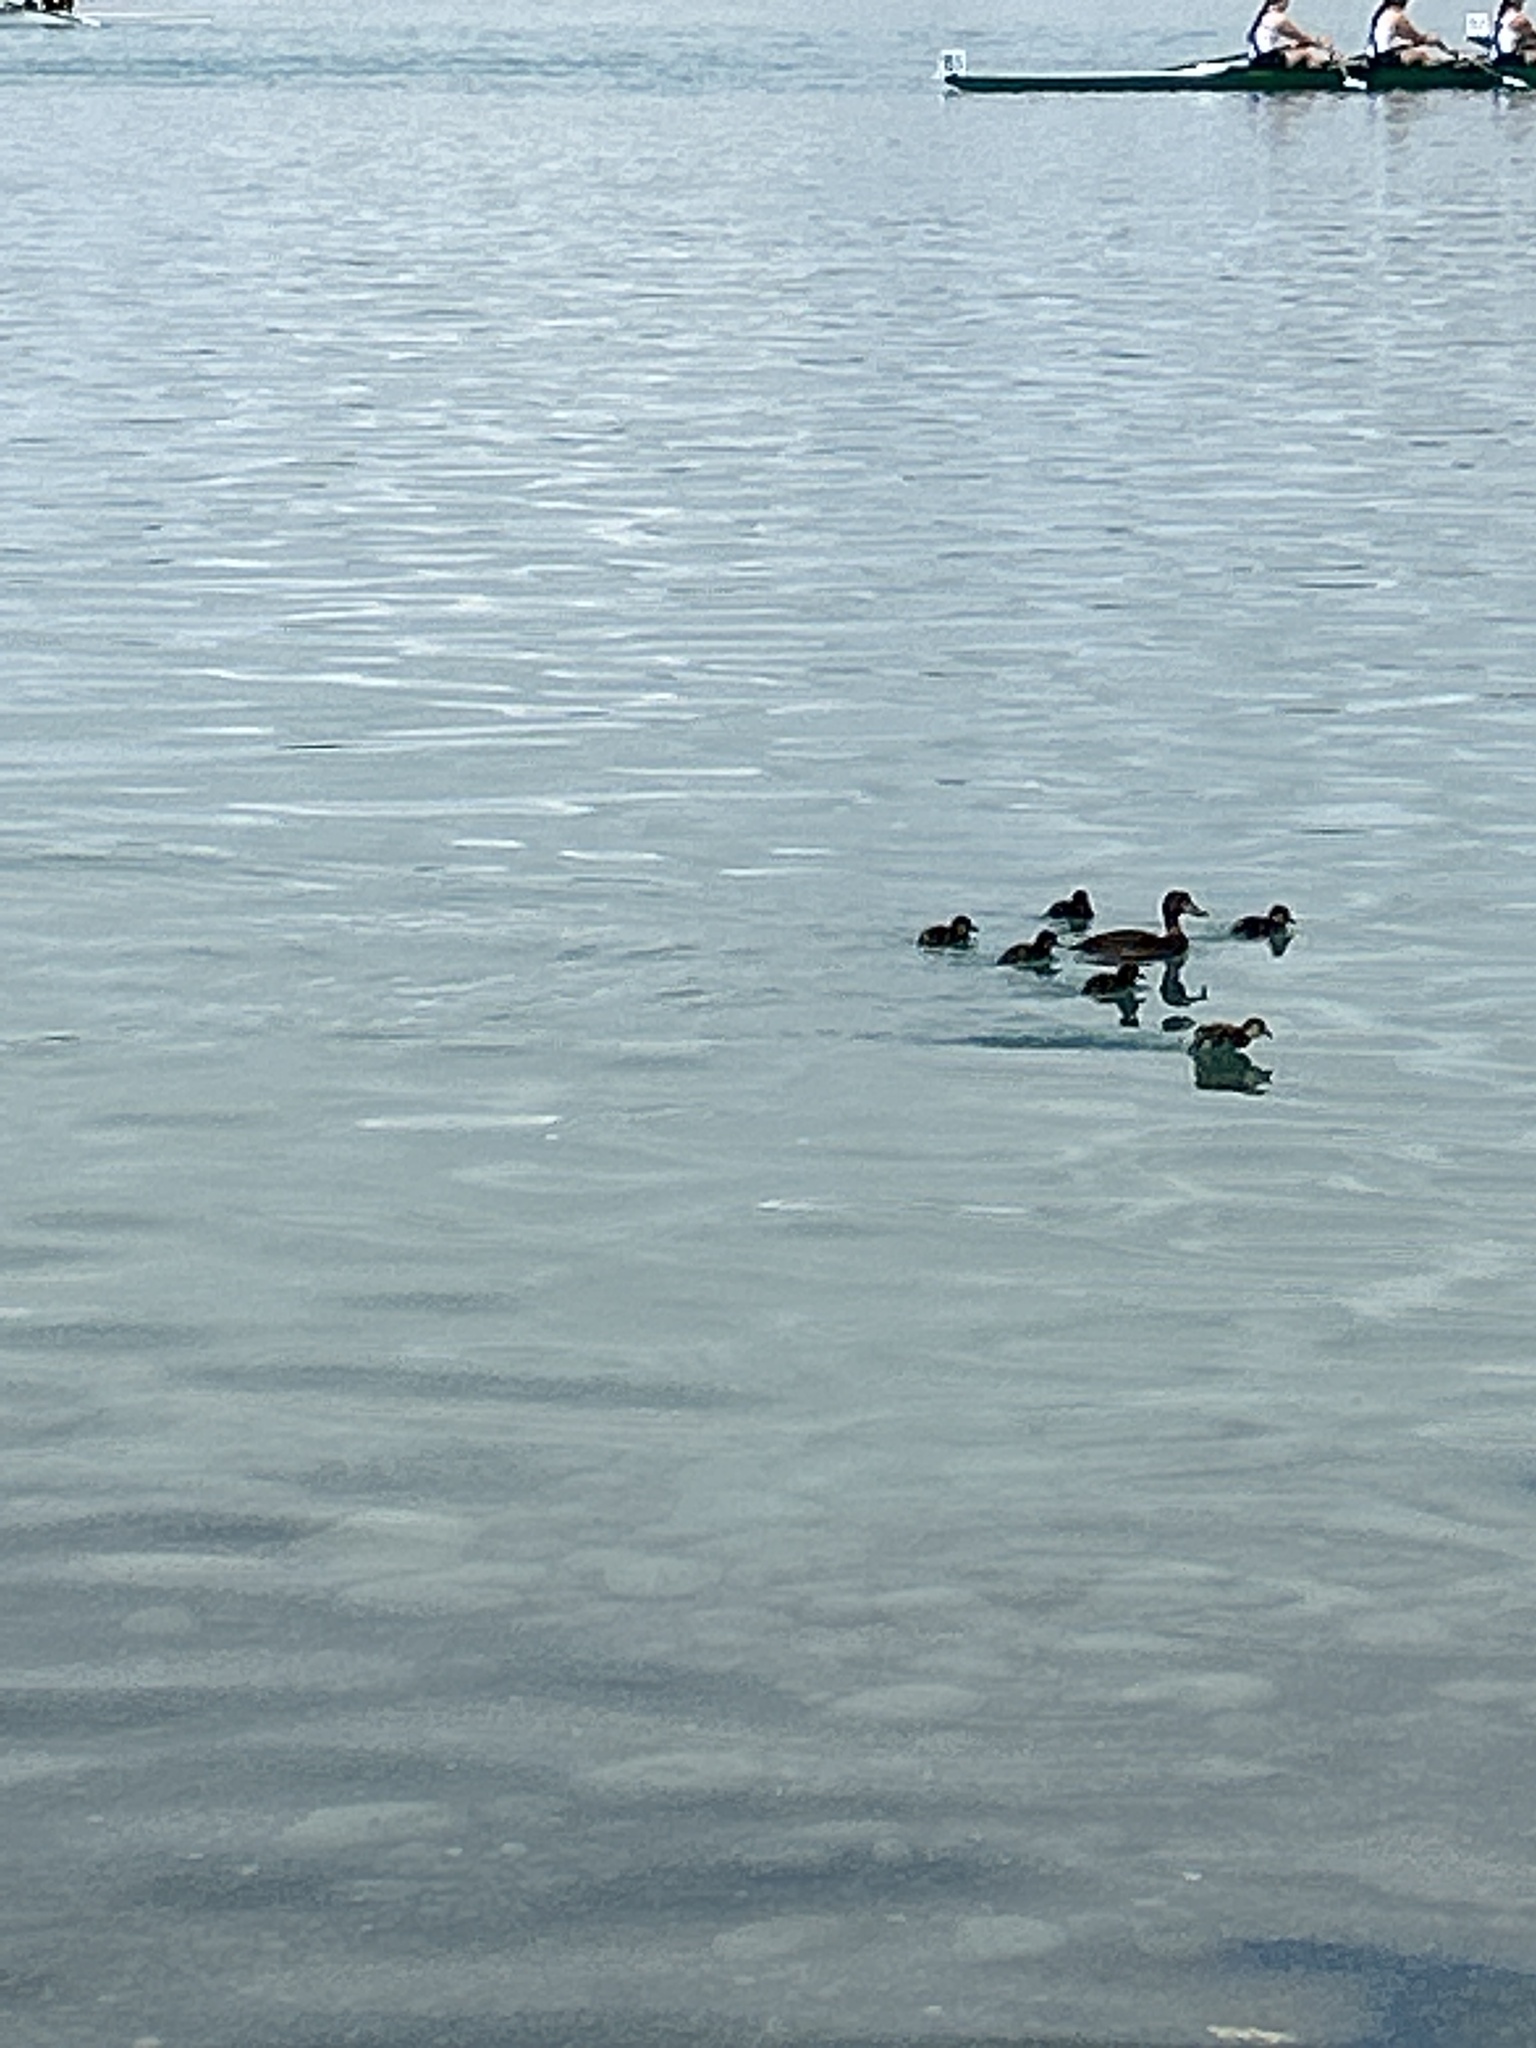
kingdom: Animalia
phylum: Chordata
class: Aves
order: Anseriformes
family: Anatidae
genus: Aythya
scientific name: Aythya novaeseelandiae
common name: New zealand scaup
